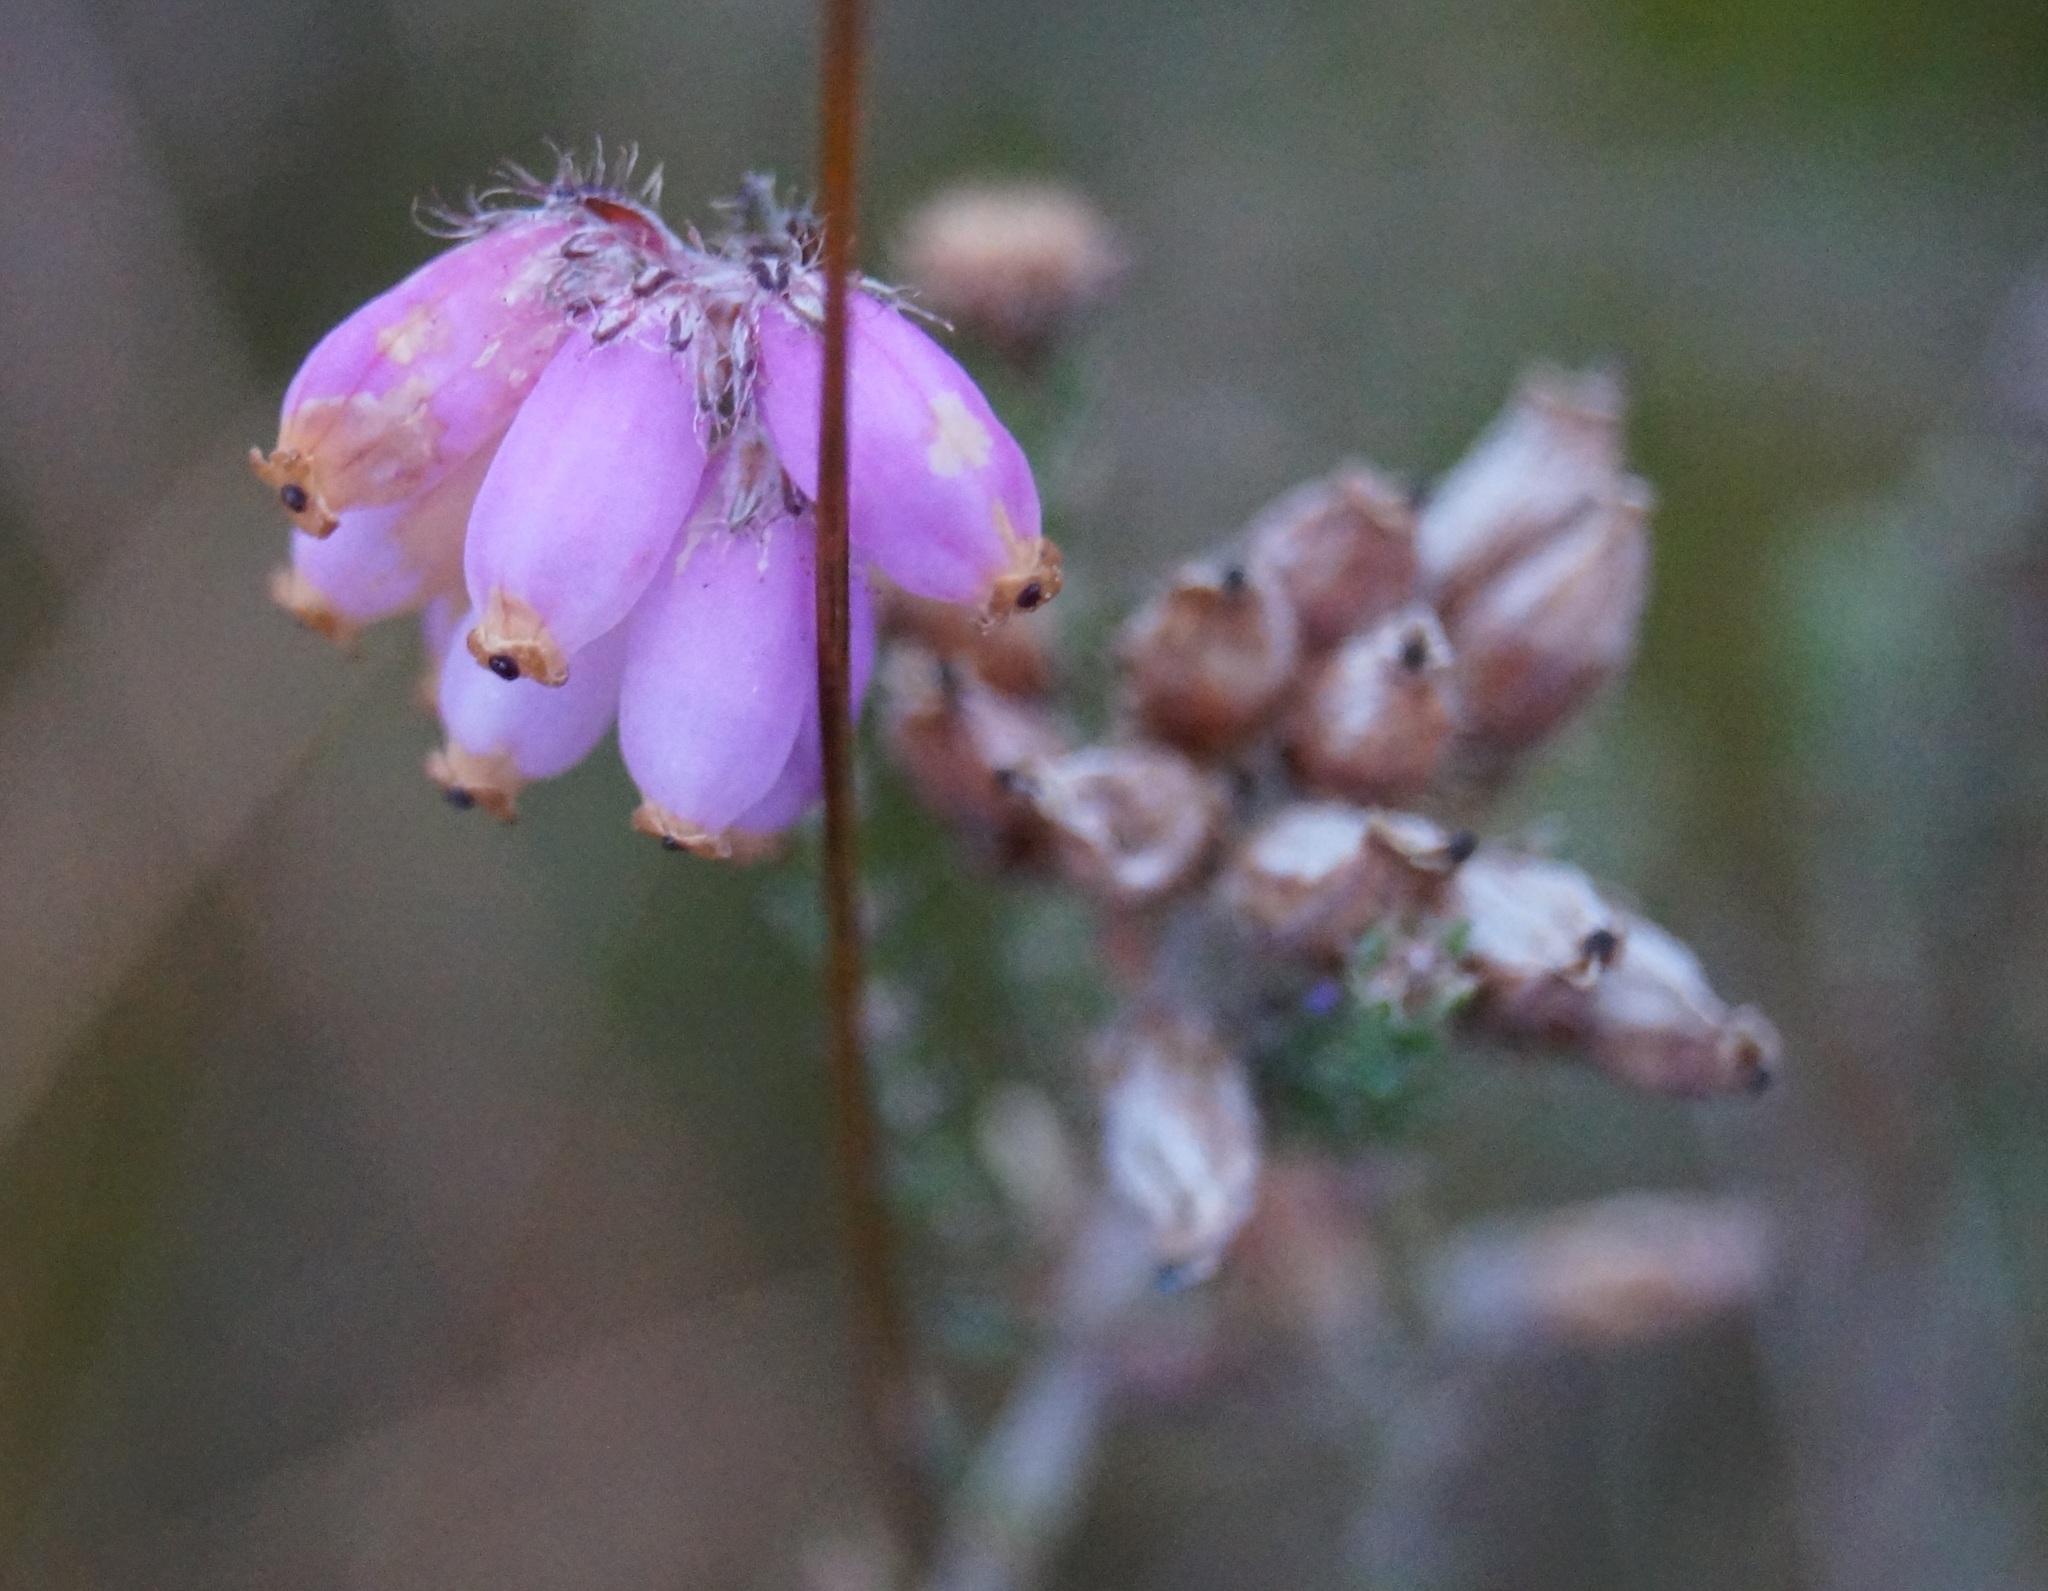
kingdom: Plantae
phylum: Tracheophyta
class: Magnoliopsida
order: Ericales
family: Ericaceae
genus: Erica
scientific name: Erica tetralix
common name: Cross-leaved heath
